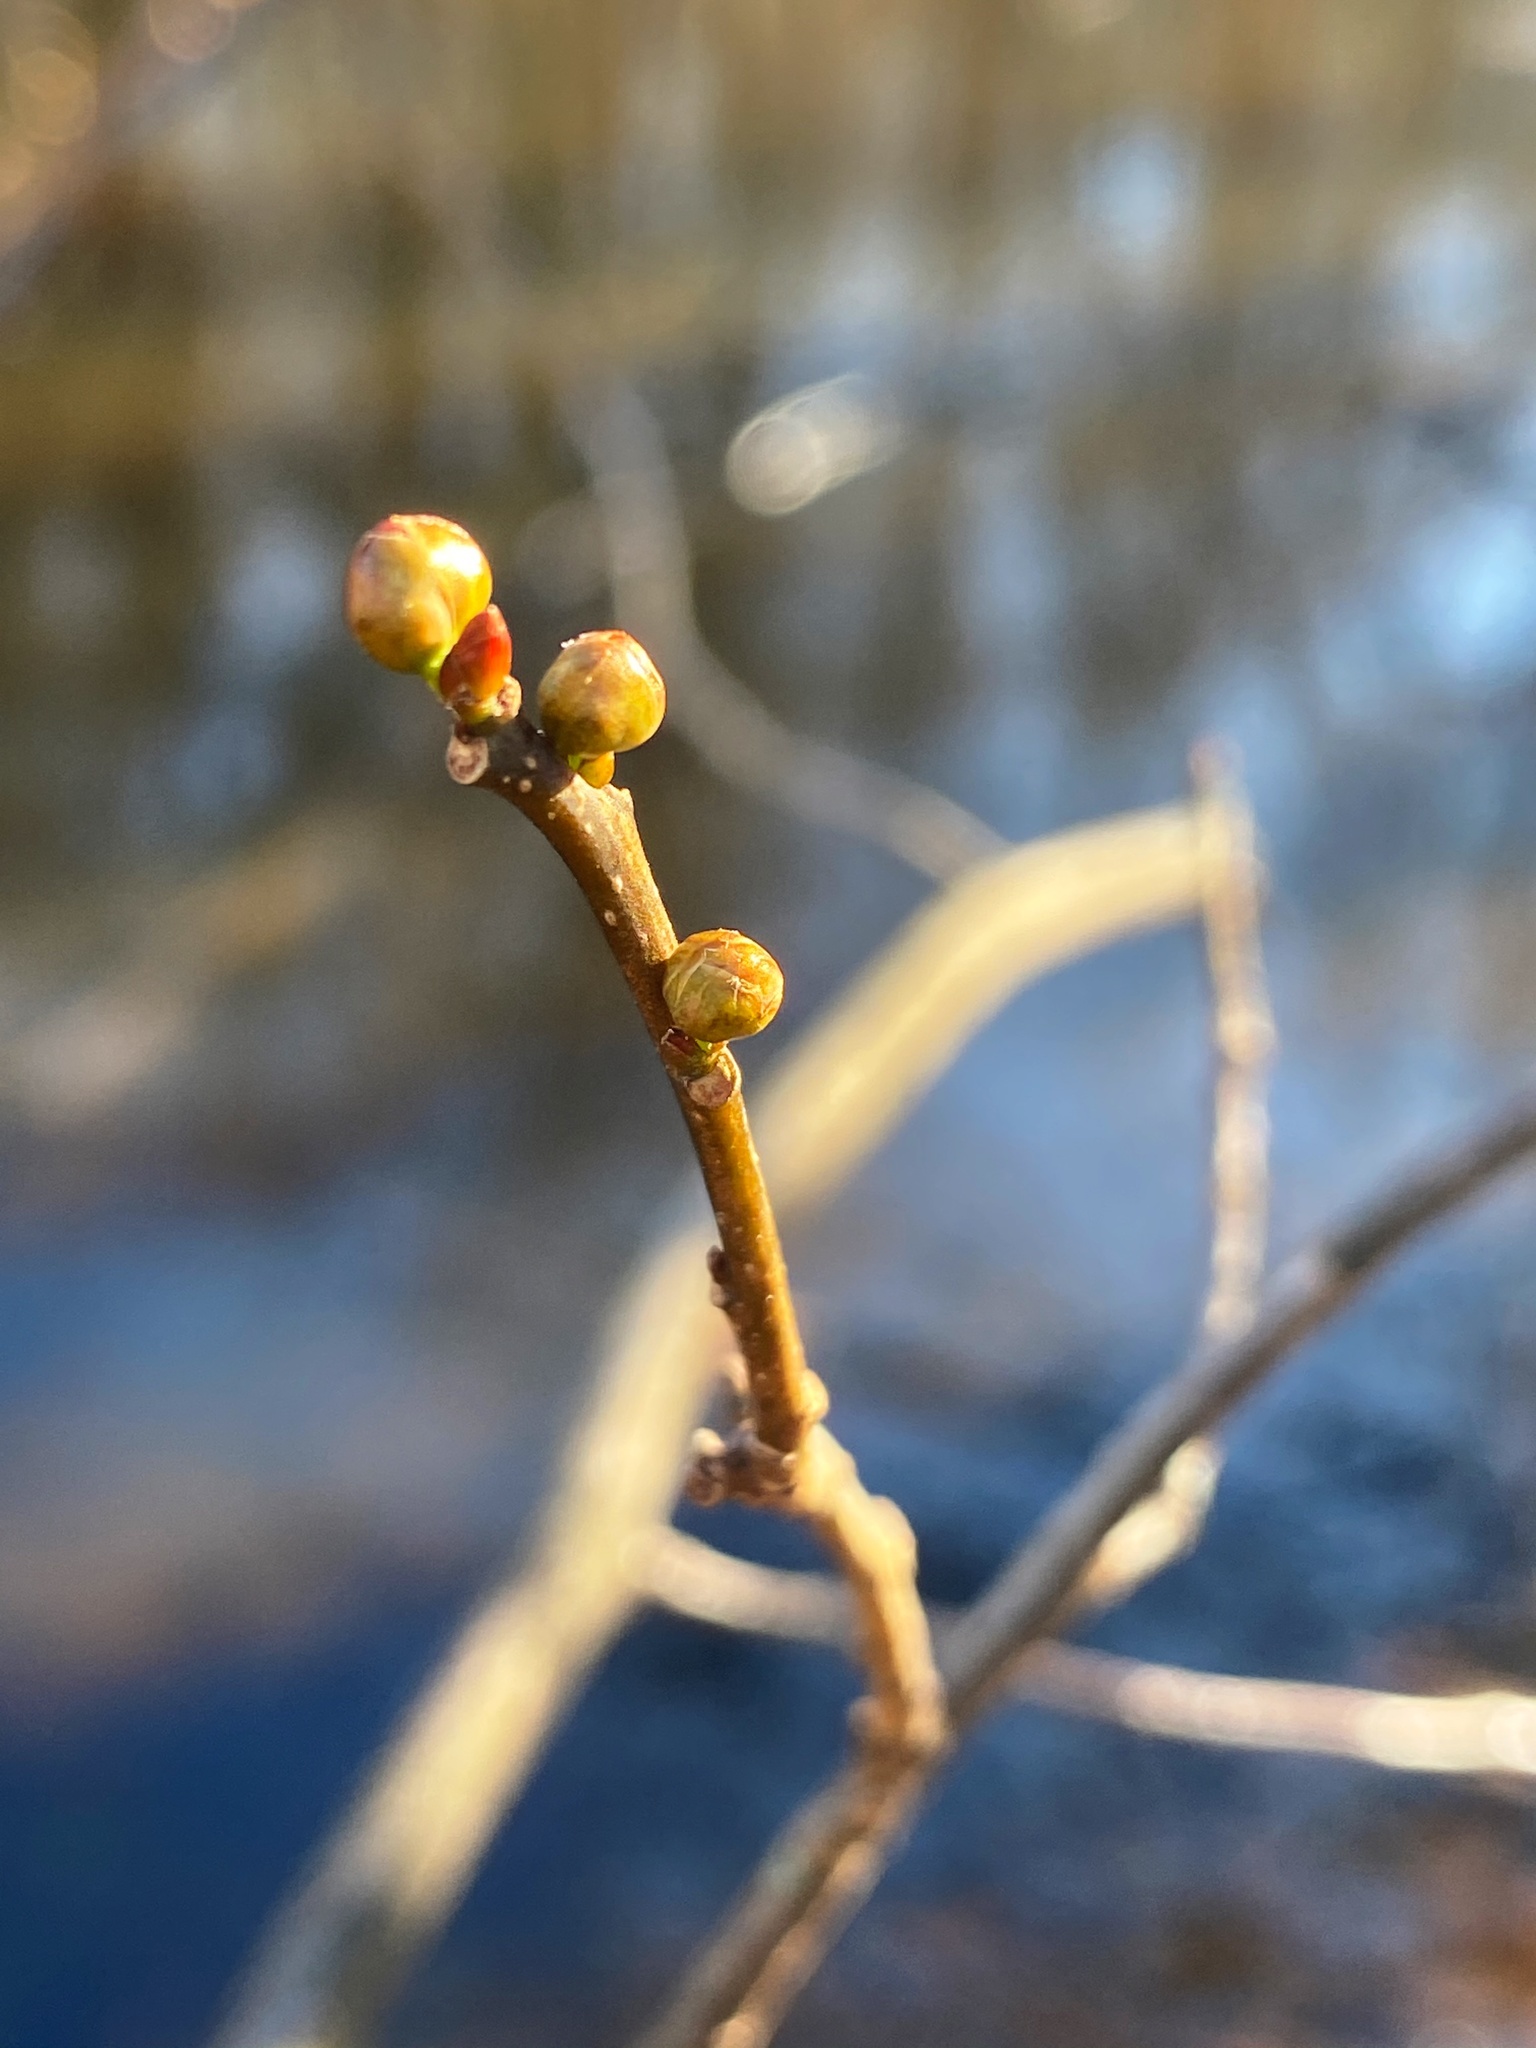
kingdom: Plantae
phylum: Tracheophyta
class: Magnoliopsida
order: Laurales
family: Lauraceae
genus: Lindera
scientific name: Lindera benzoin
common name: Spicebush
